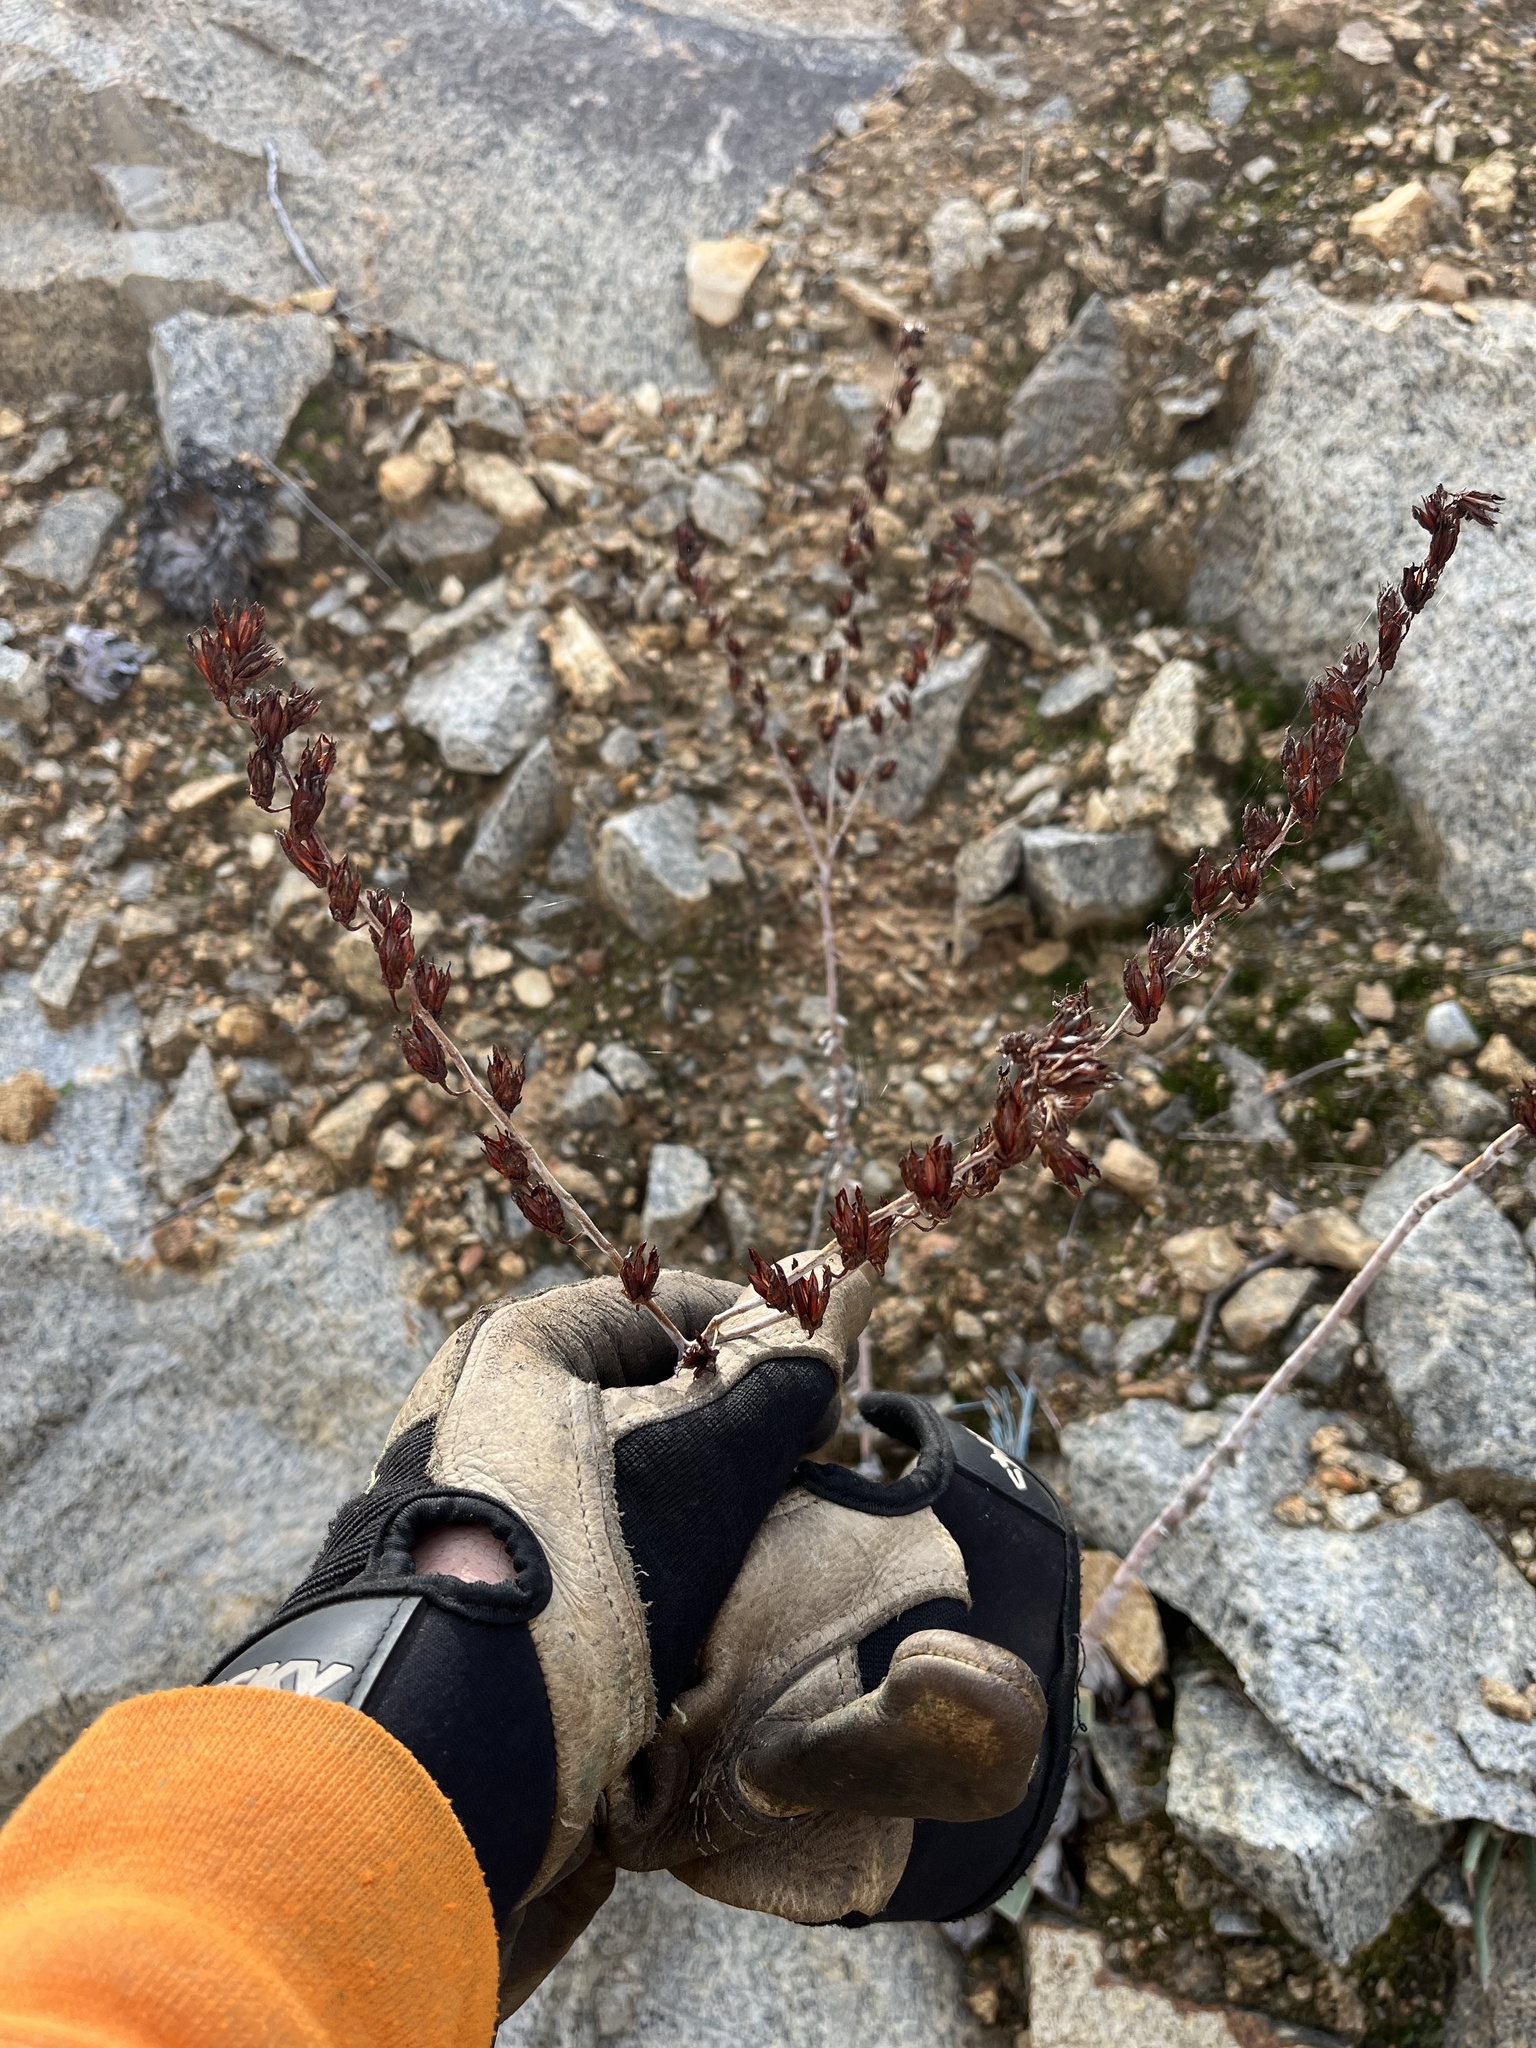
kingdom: Plantae
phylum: Tracheophyta
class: Magnoliopsida
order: Saxifragales
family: Crassulaceae
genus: Dudleya
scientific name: Dudleya pulverulenta
